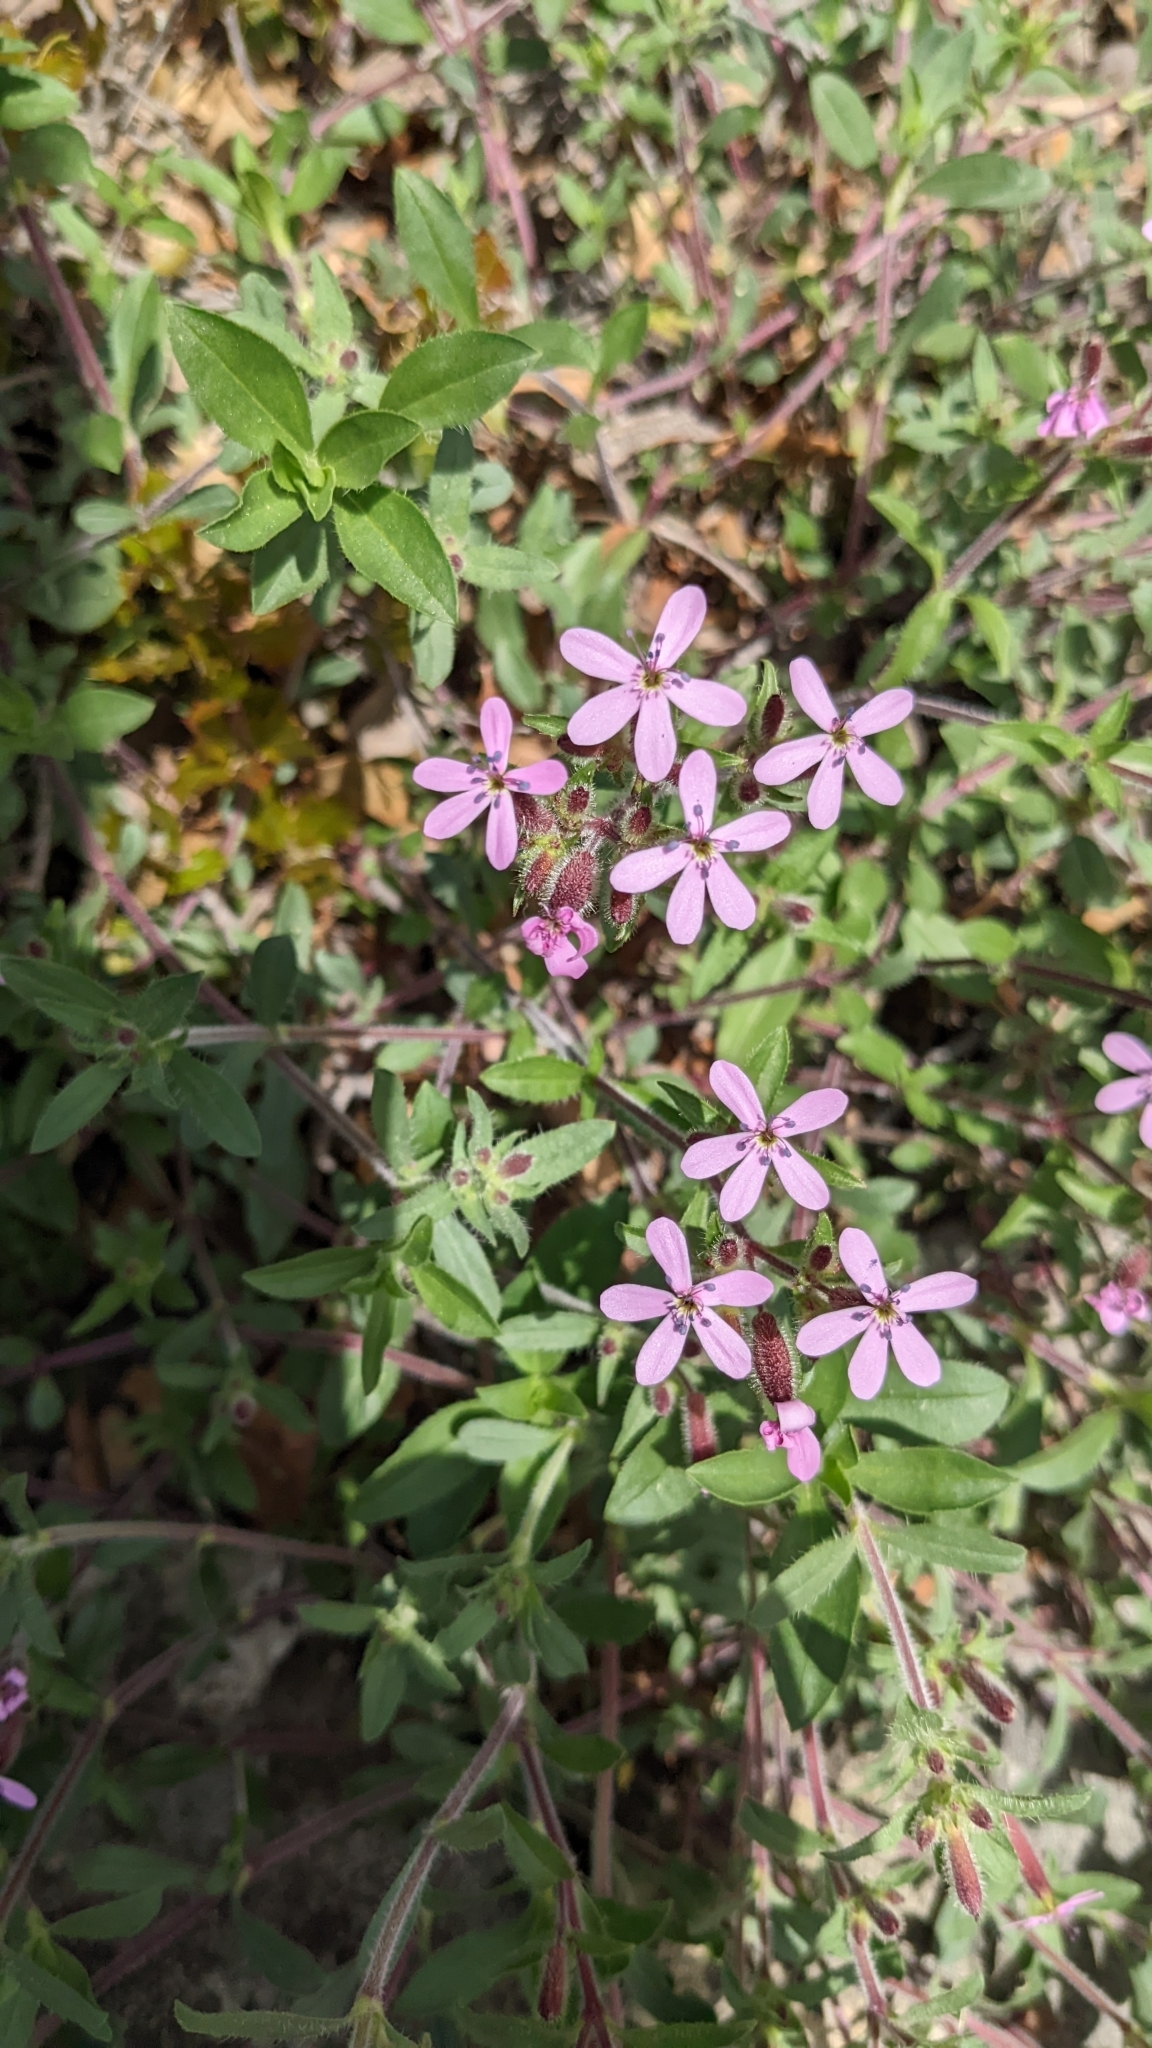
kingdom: Plantae
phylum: Tracheophyta
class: Magnoliopsida
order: Caryophyllales
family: Caryophyllaceae
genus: Saponaria
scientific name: Saponaria ocymoides
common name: Rock soapwort
